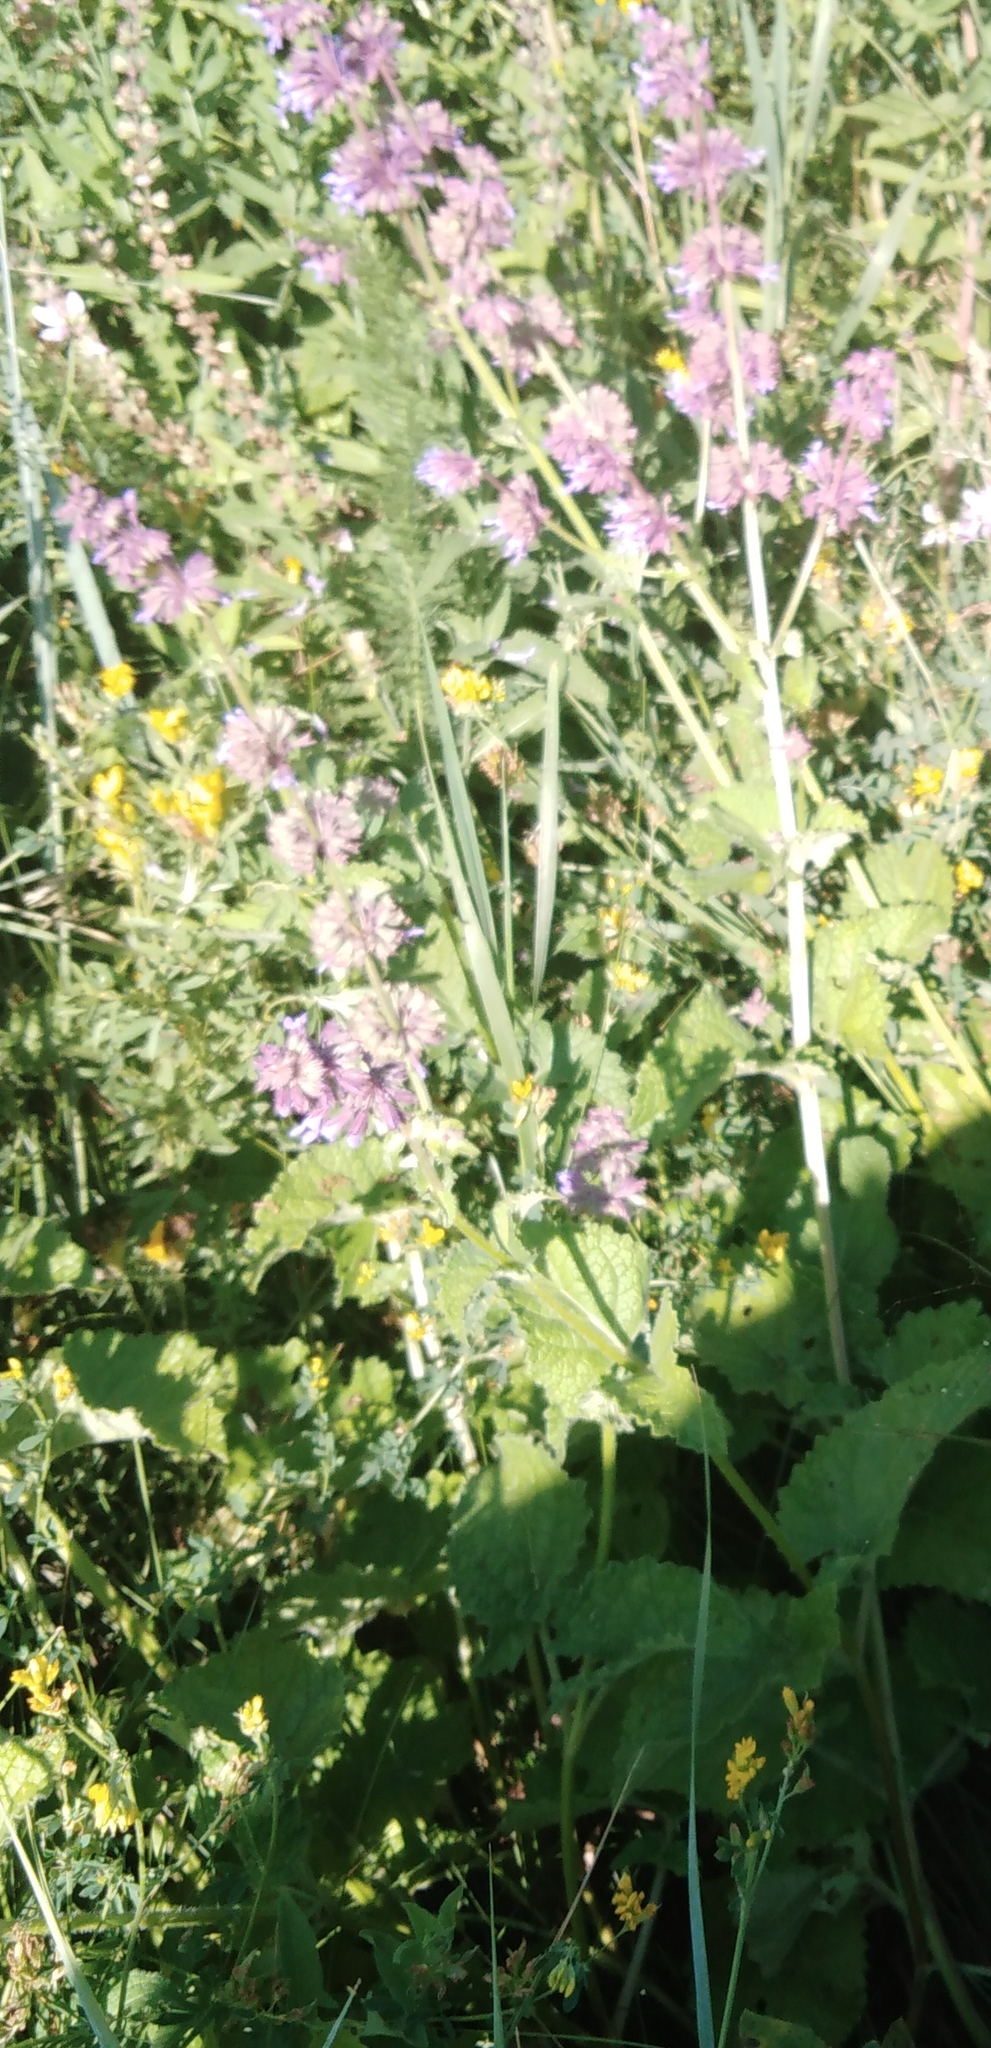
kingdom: Plantae
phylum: Tracheophyta
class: Magnoliopsida
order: Lamiales
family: Lamiaceae
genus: Salvia
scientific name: Salvia verticillata
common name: Whorled clary
